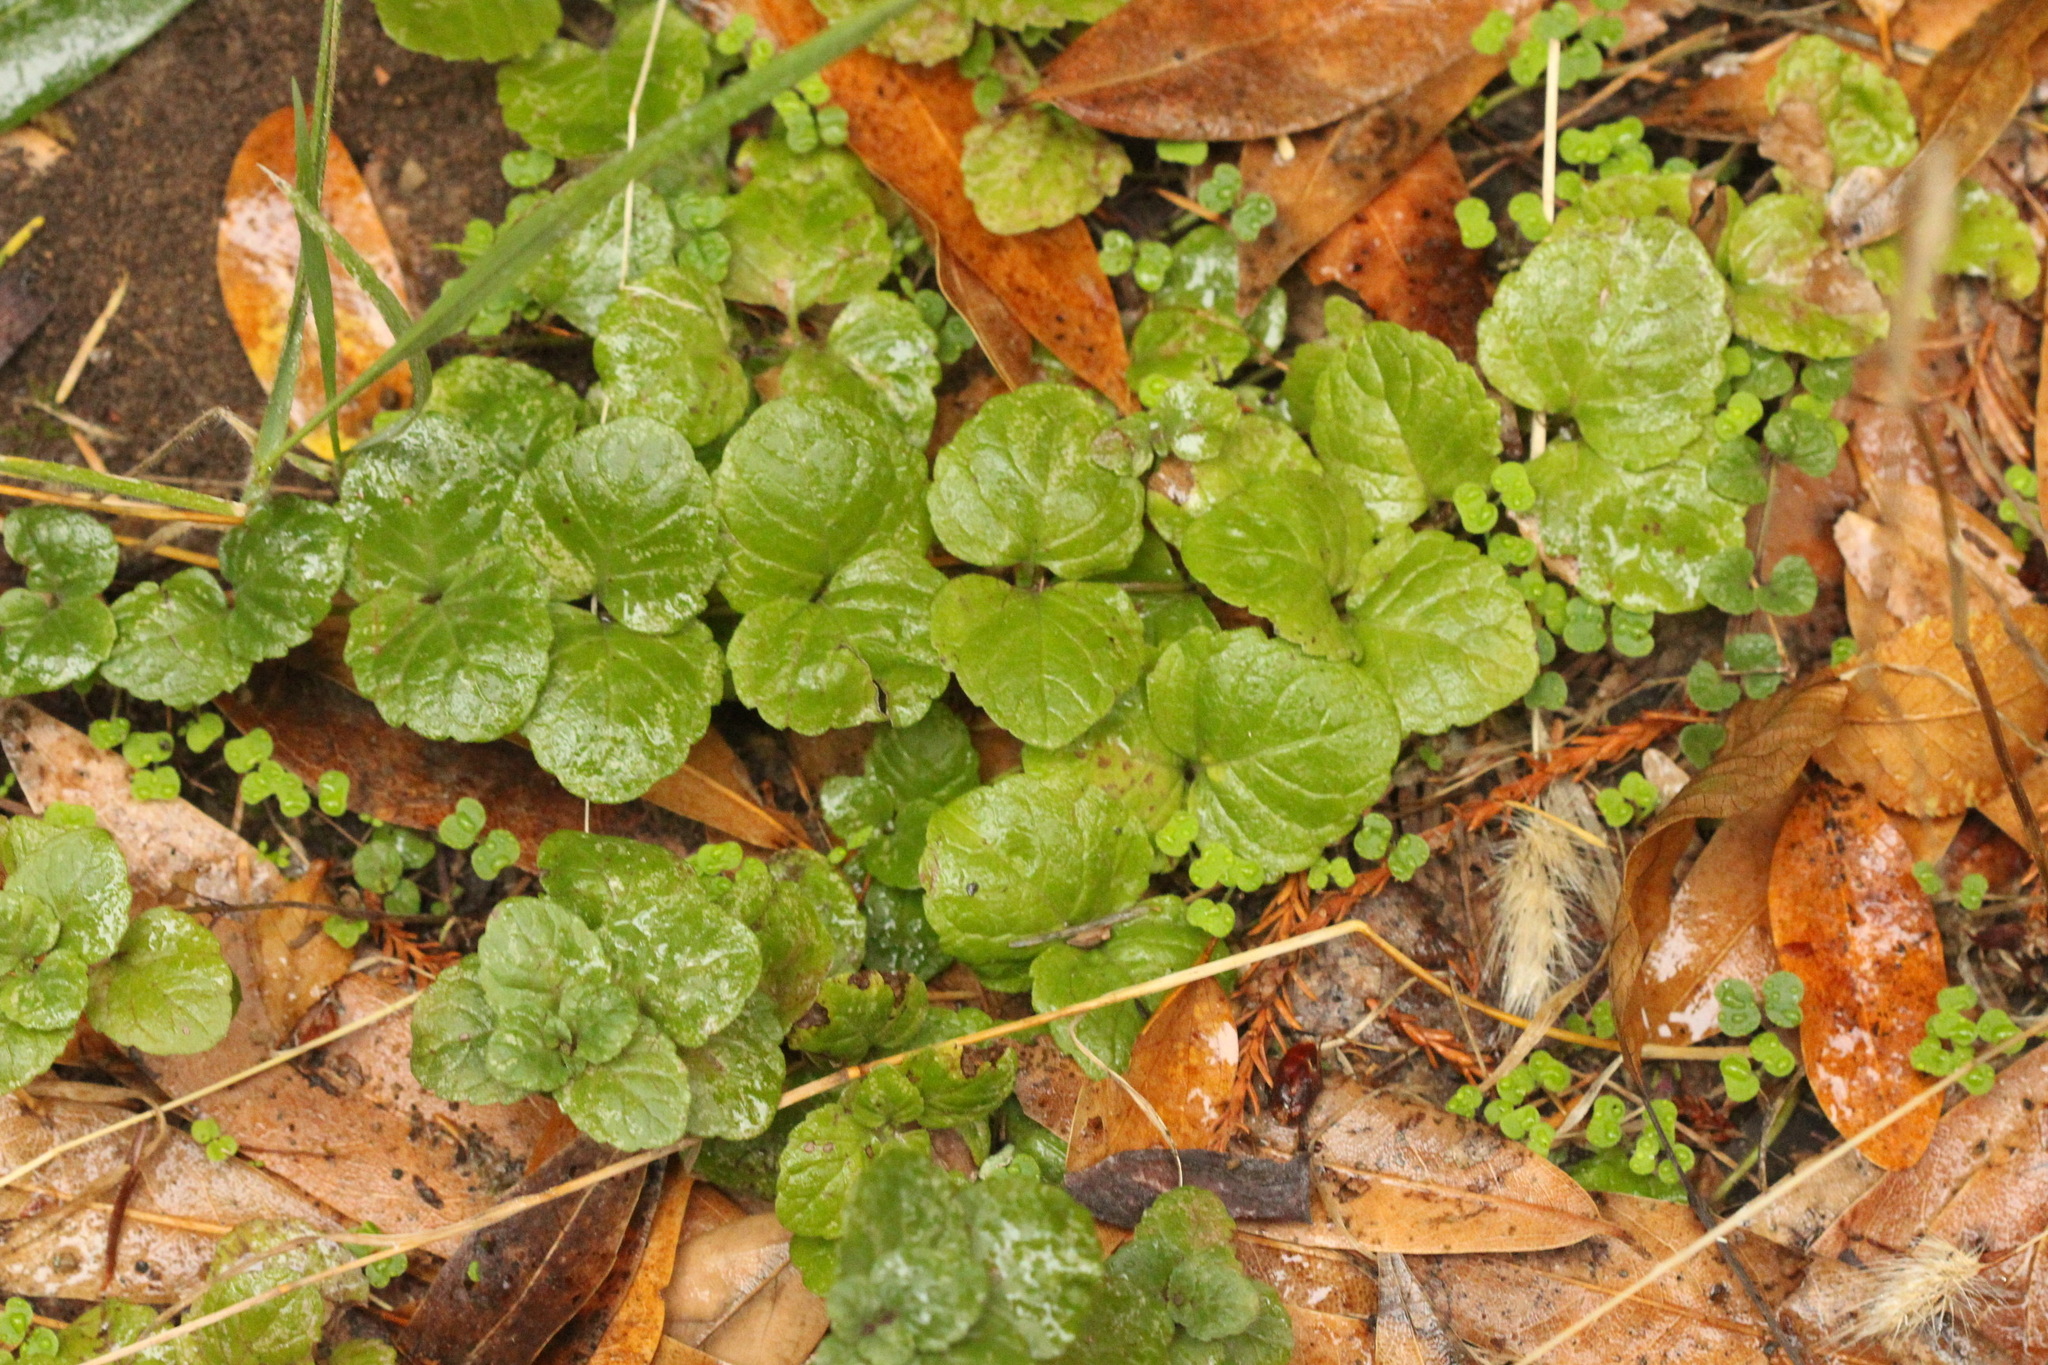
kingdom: Plantae
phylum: Tracheophyta
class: Magnoliopsida
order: Lamiales
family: Lamiaceae
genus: Micromeria
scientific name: Micromeria douglasii
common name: Yerba buena
